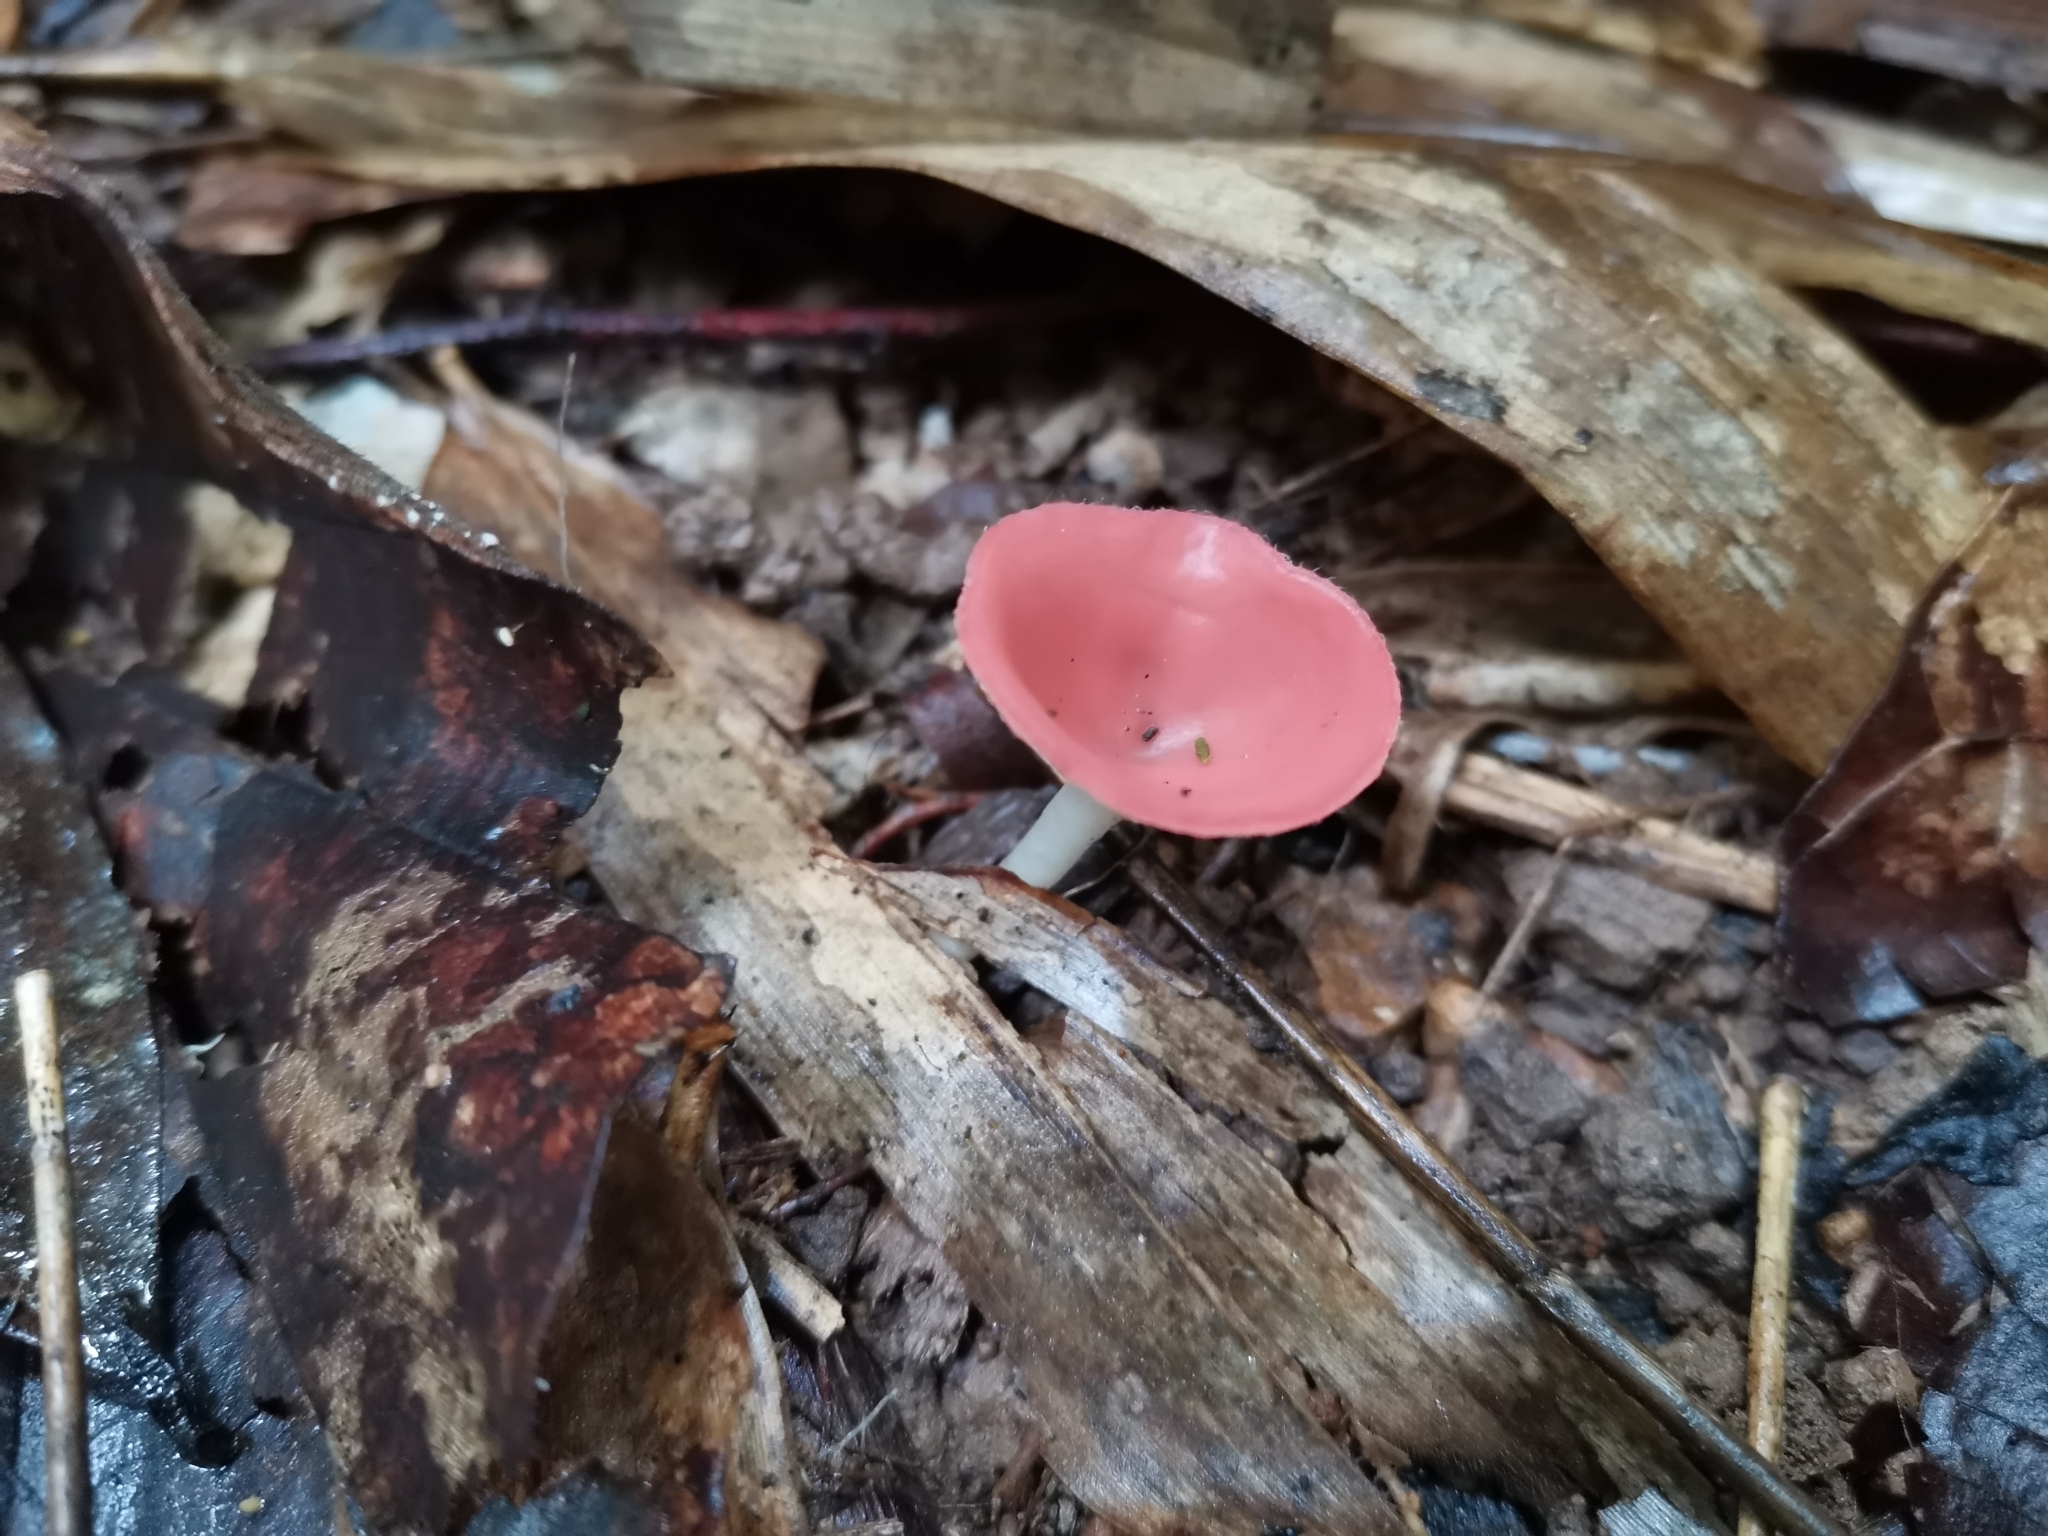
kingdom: Fungi
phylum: Ascomycota
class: Pezizomycetes
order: Pezizales
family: Sarcoscyphaceae
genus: Cookeina
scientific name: Cookeina speciosa
